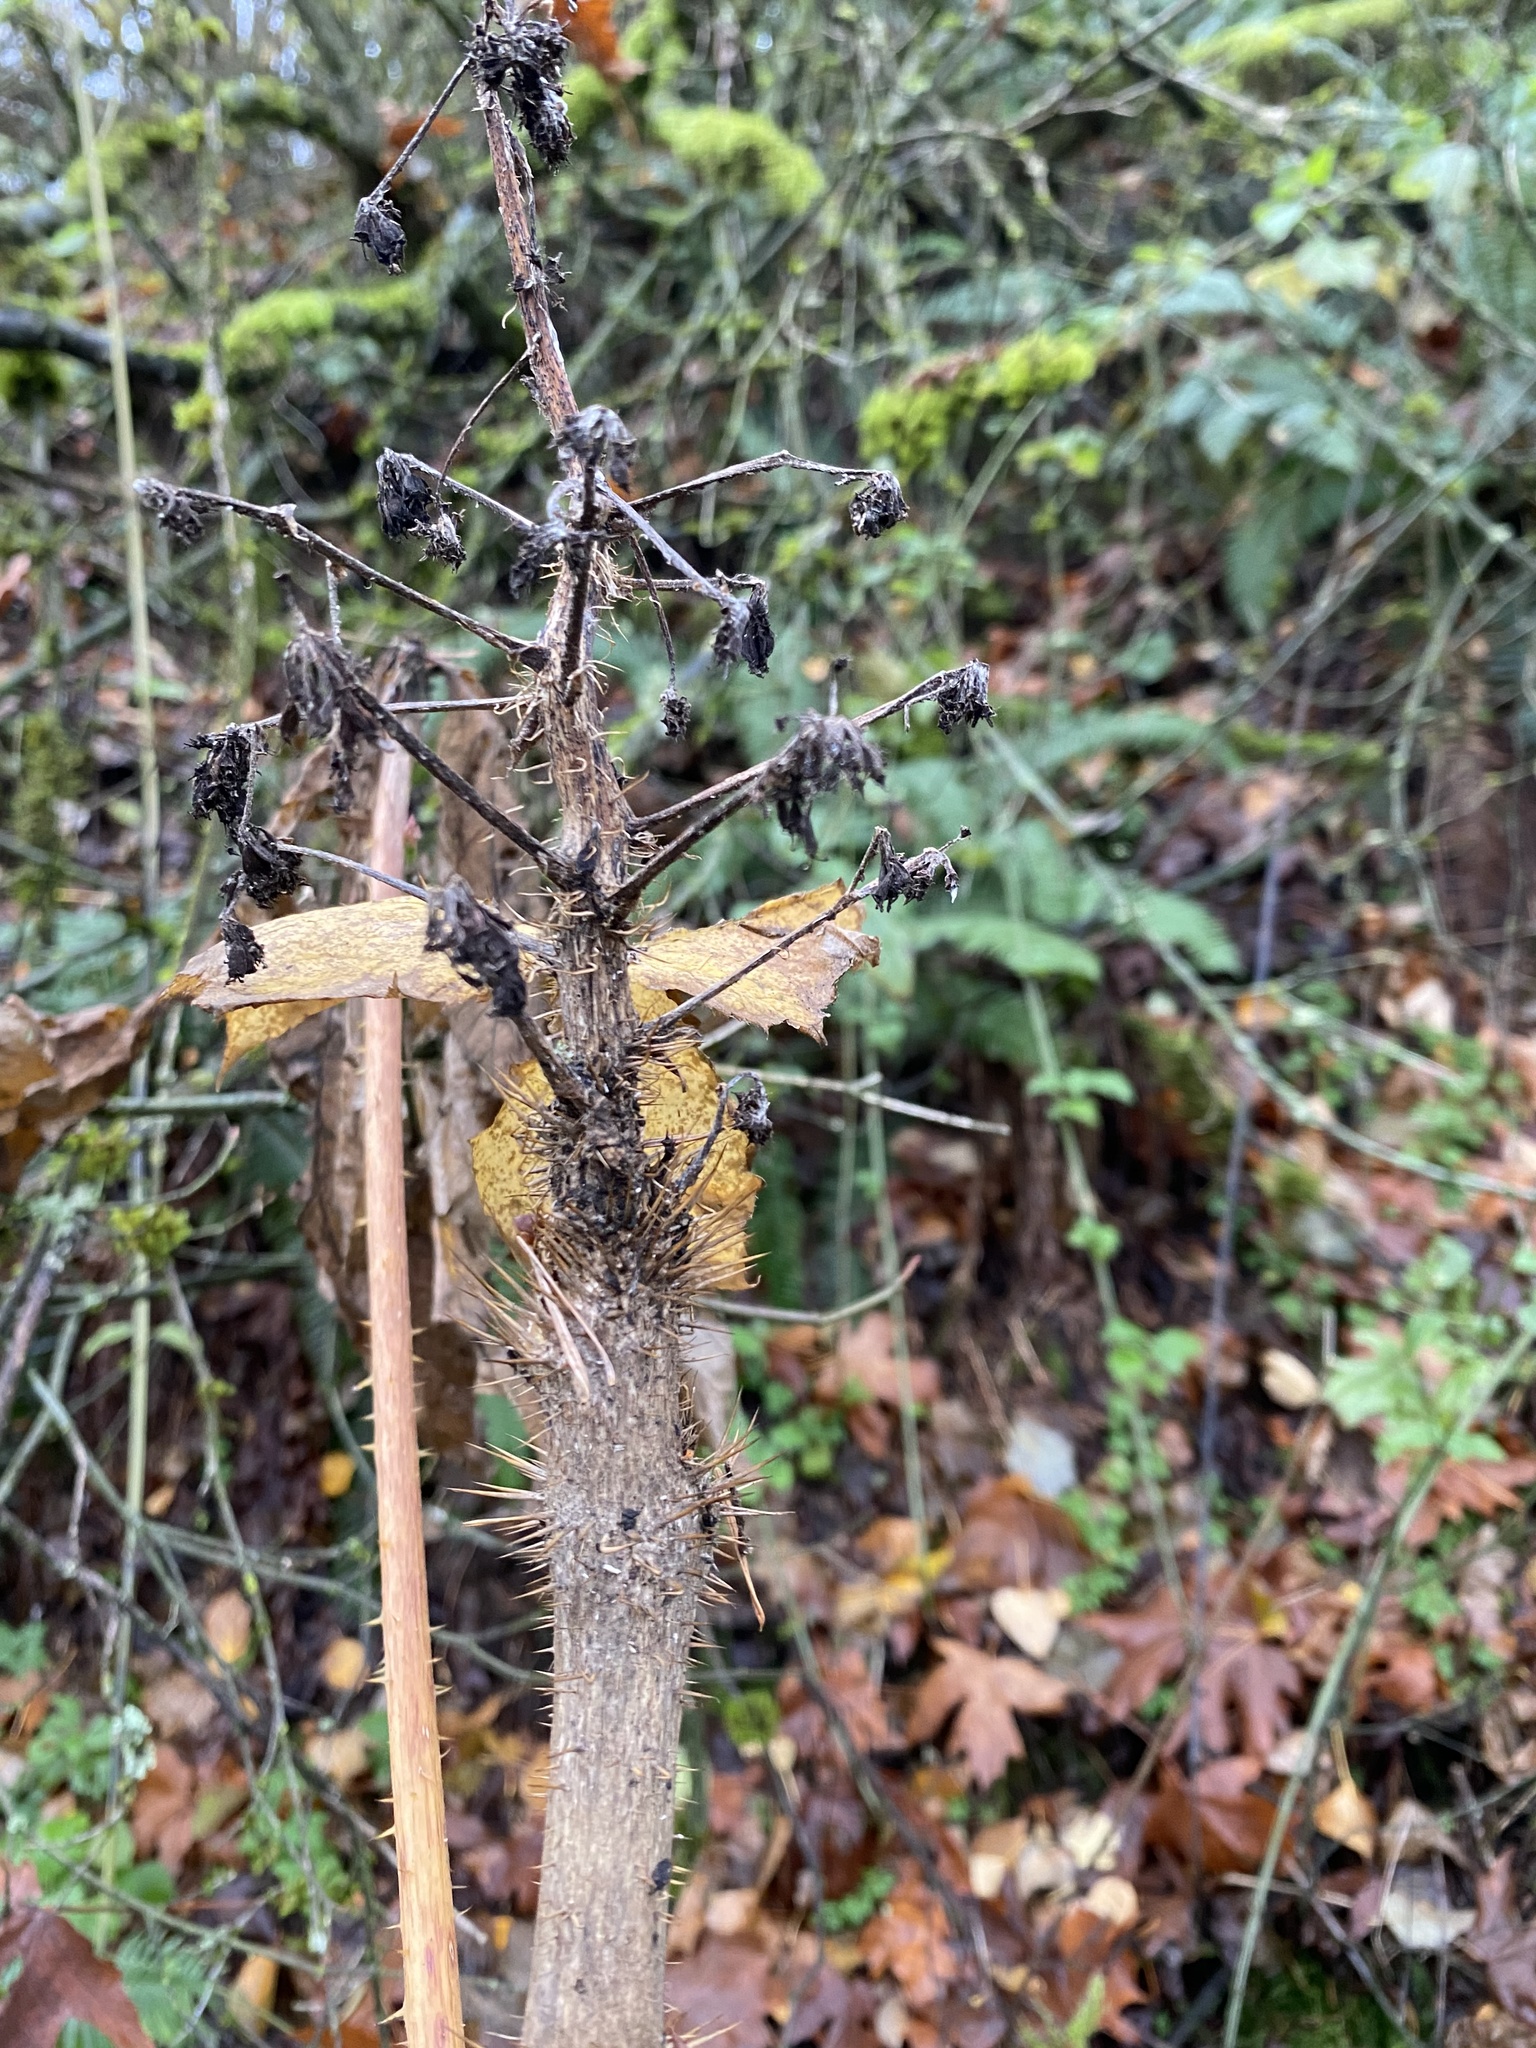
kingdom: Plantae
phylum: Tracheophyta
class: Magnoliopsida
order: Apiales
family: Araliaceae
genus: Oplopanax
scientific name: Oplopanax horridus
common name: Devil's walking-stick
